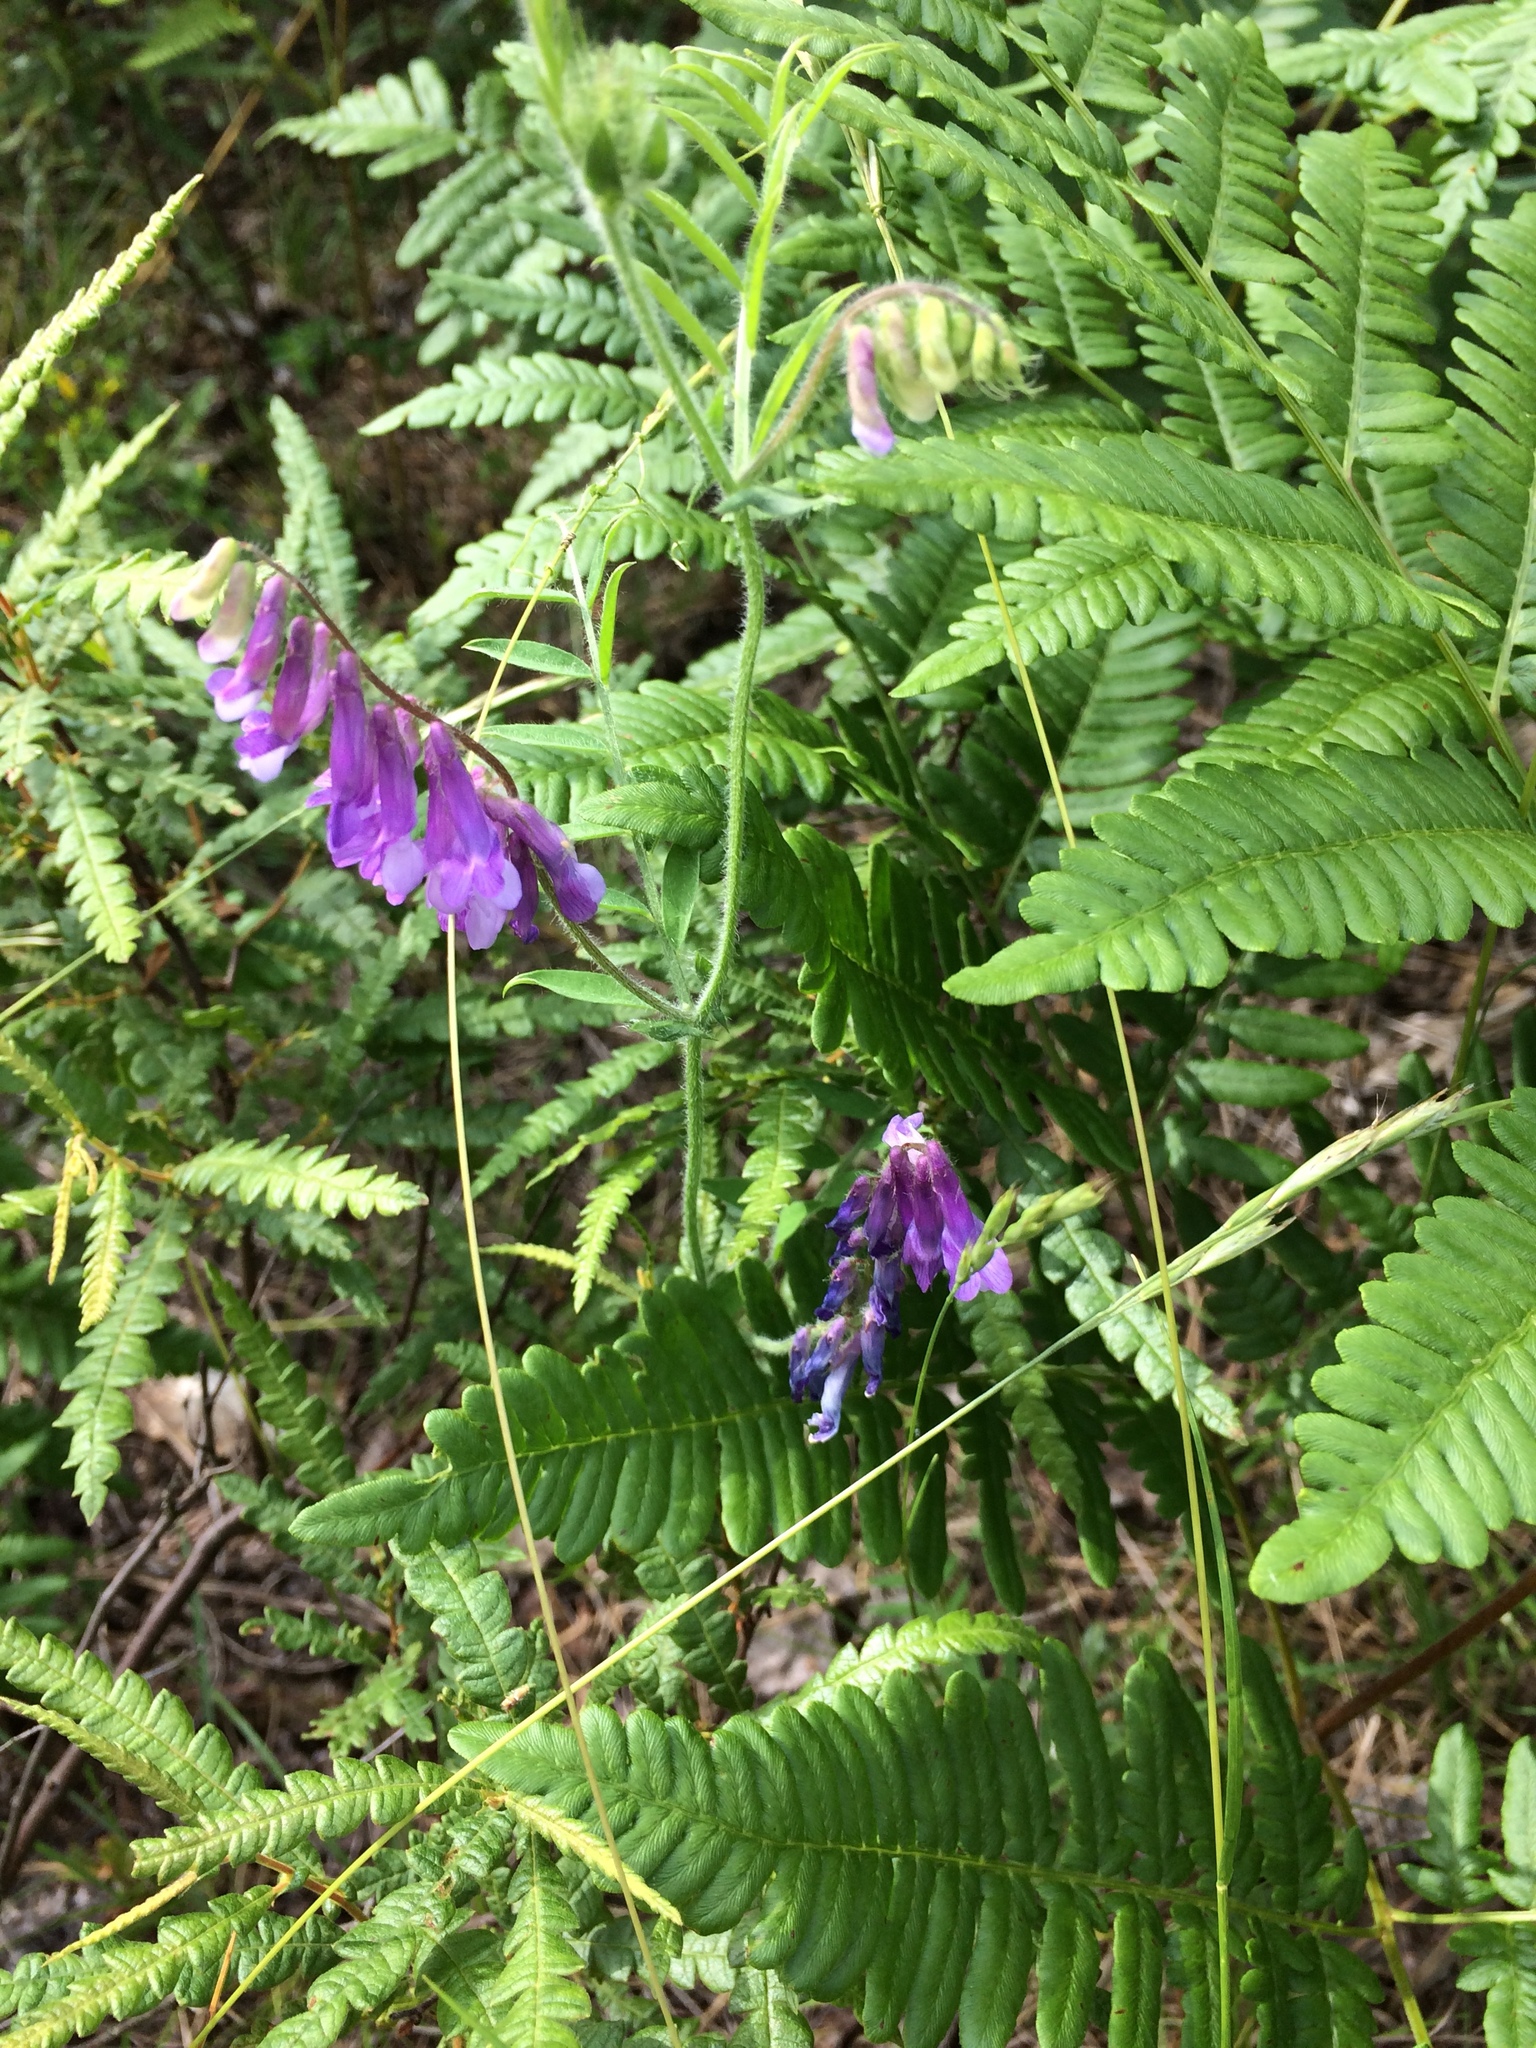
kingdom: Plantae
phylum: Tracheophyta
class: Magnoliopsida
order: Fabales
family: Fabaceae
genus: Vicia
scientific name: Vicia villosa
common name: Fodder vetch
